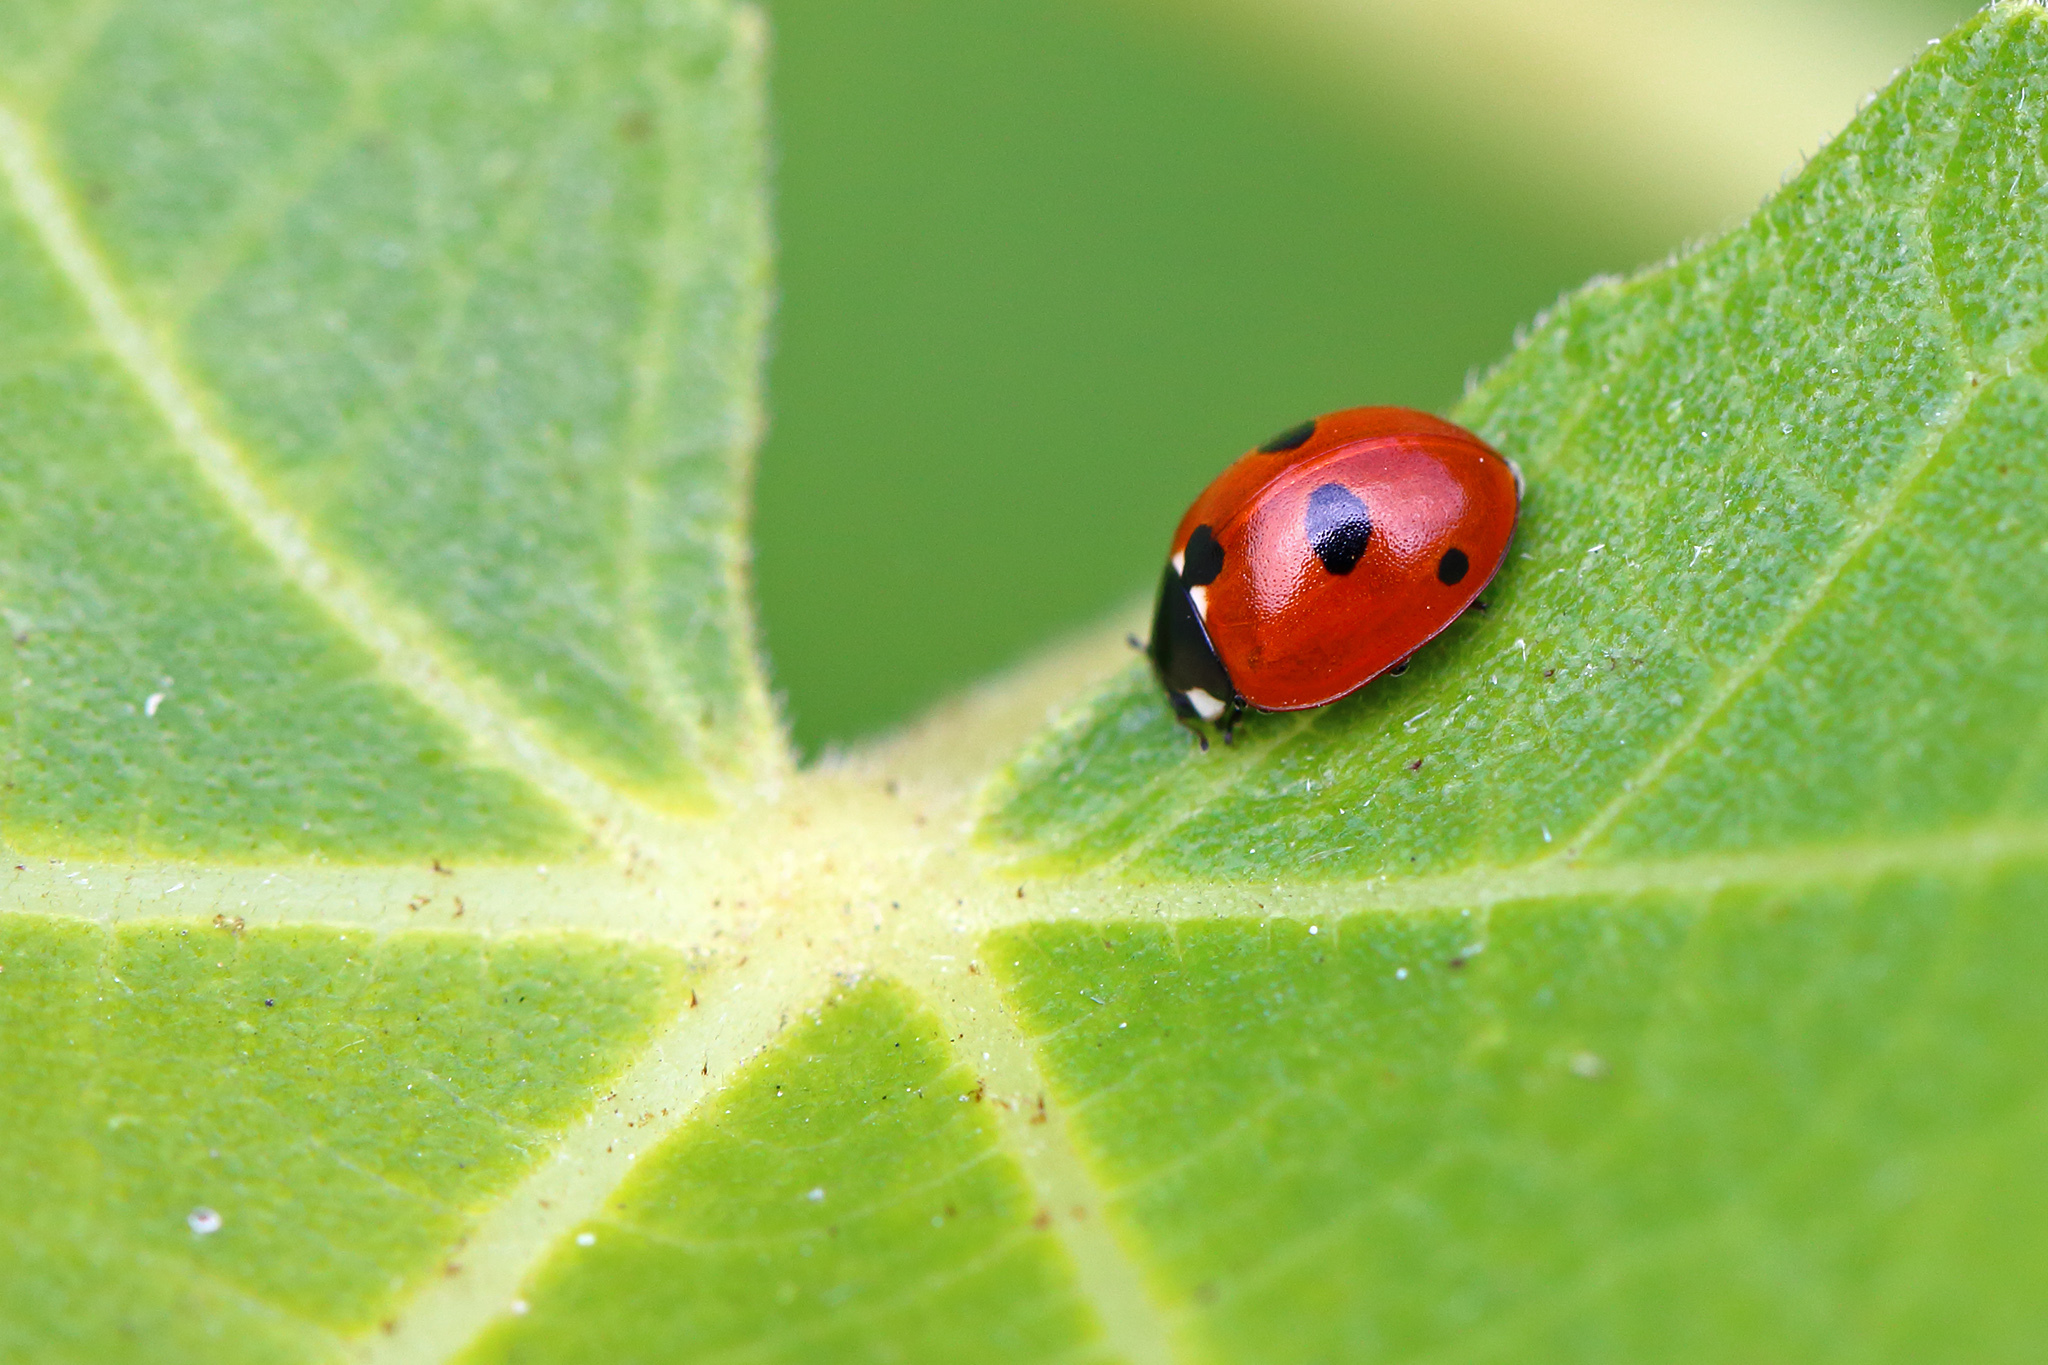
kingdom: Animalia
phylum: Arthropoda
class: Insecta
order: Coleoptera
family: Coccinellidae
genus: Coccinella
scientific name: Coccinella quinquepunctata
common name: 5-spot ladybird
